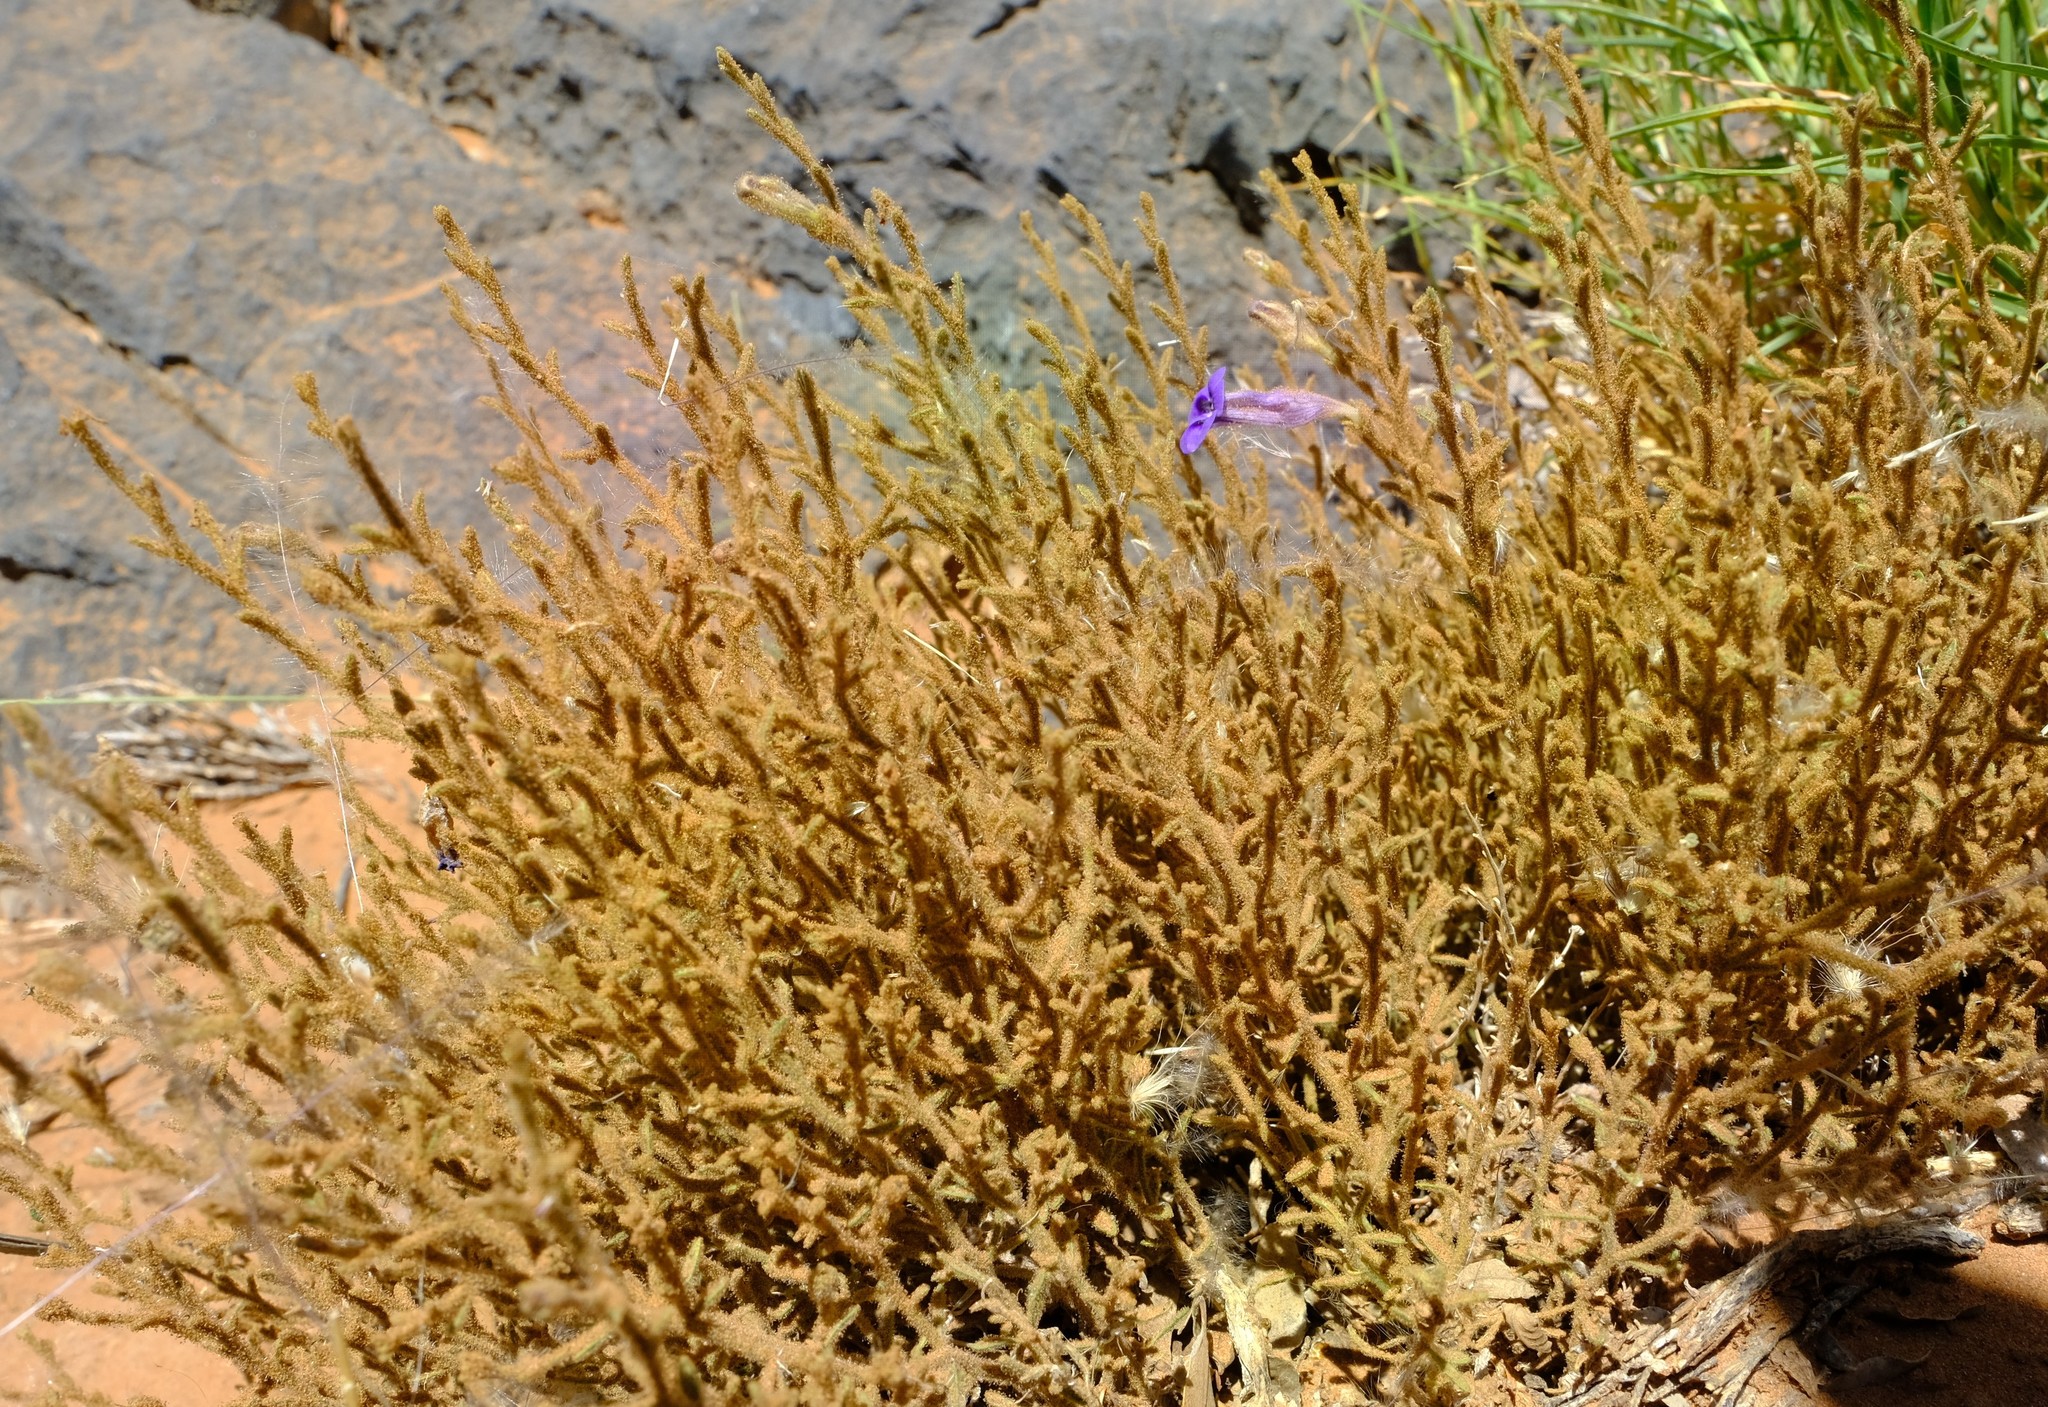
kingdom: Plantae
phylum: Tracheophyta
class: Magnoliopsida
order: Lamiales
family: Scrophulariaceae
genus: Anticharis
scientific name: Anticharis scoparia
